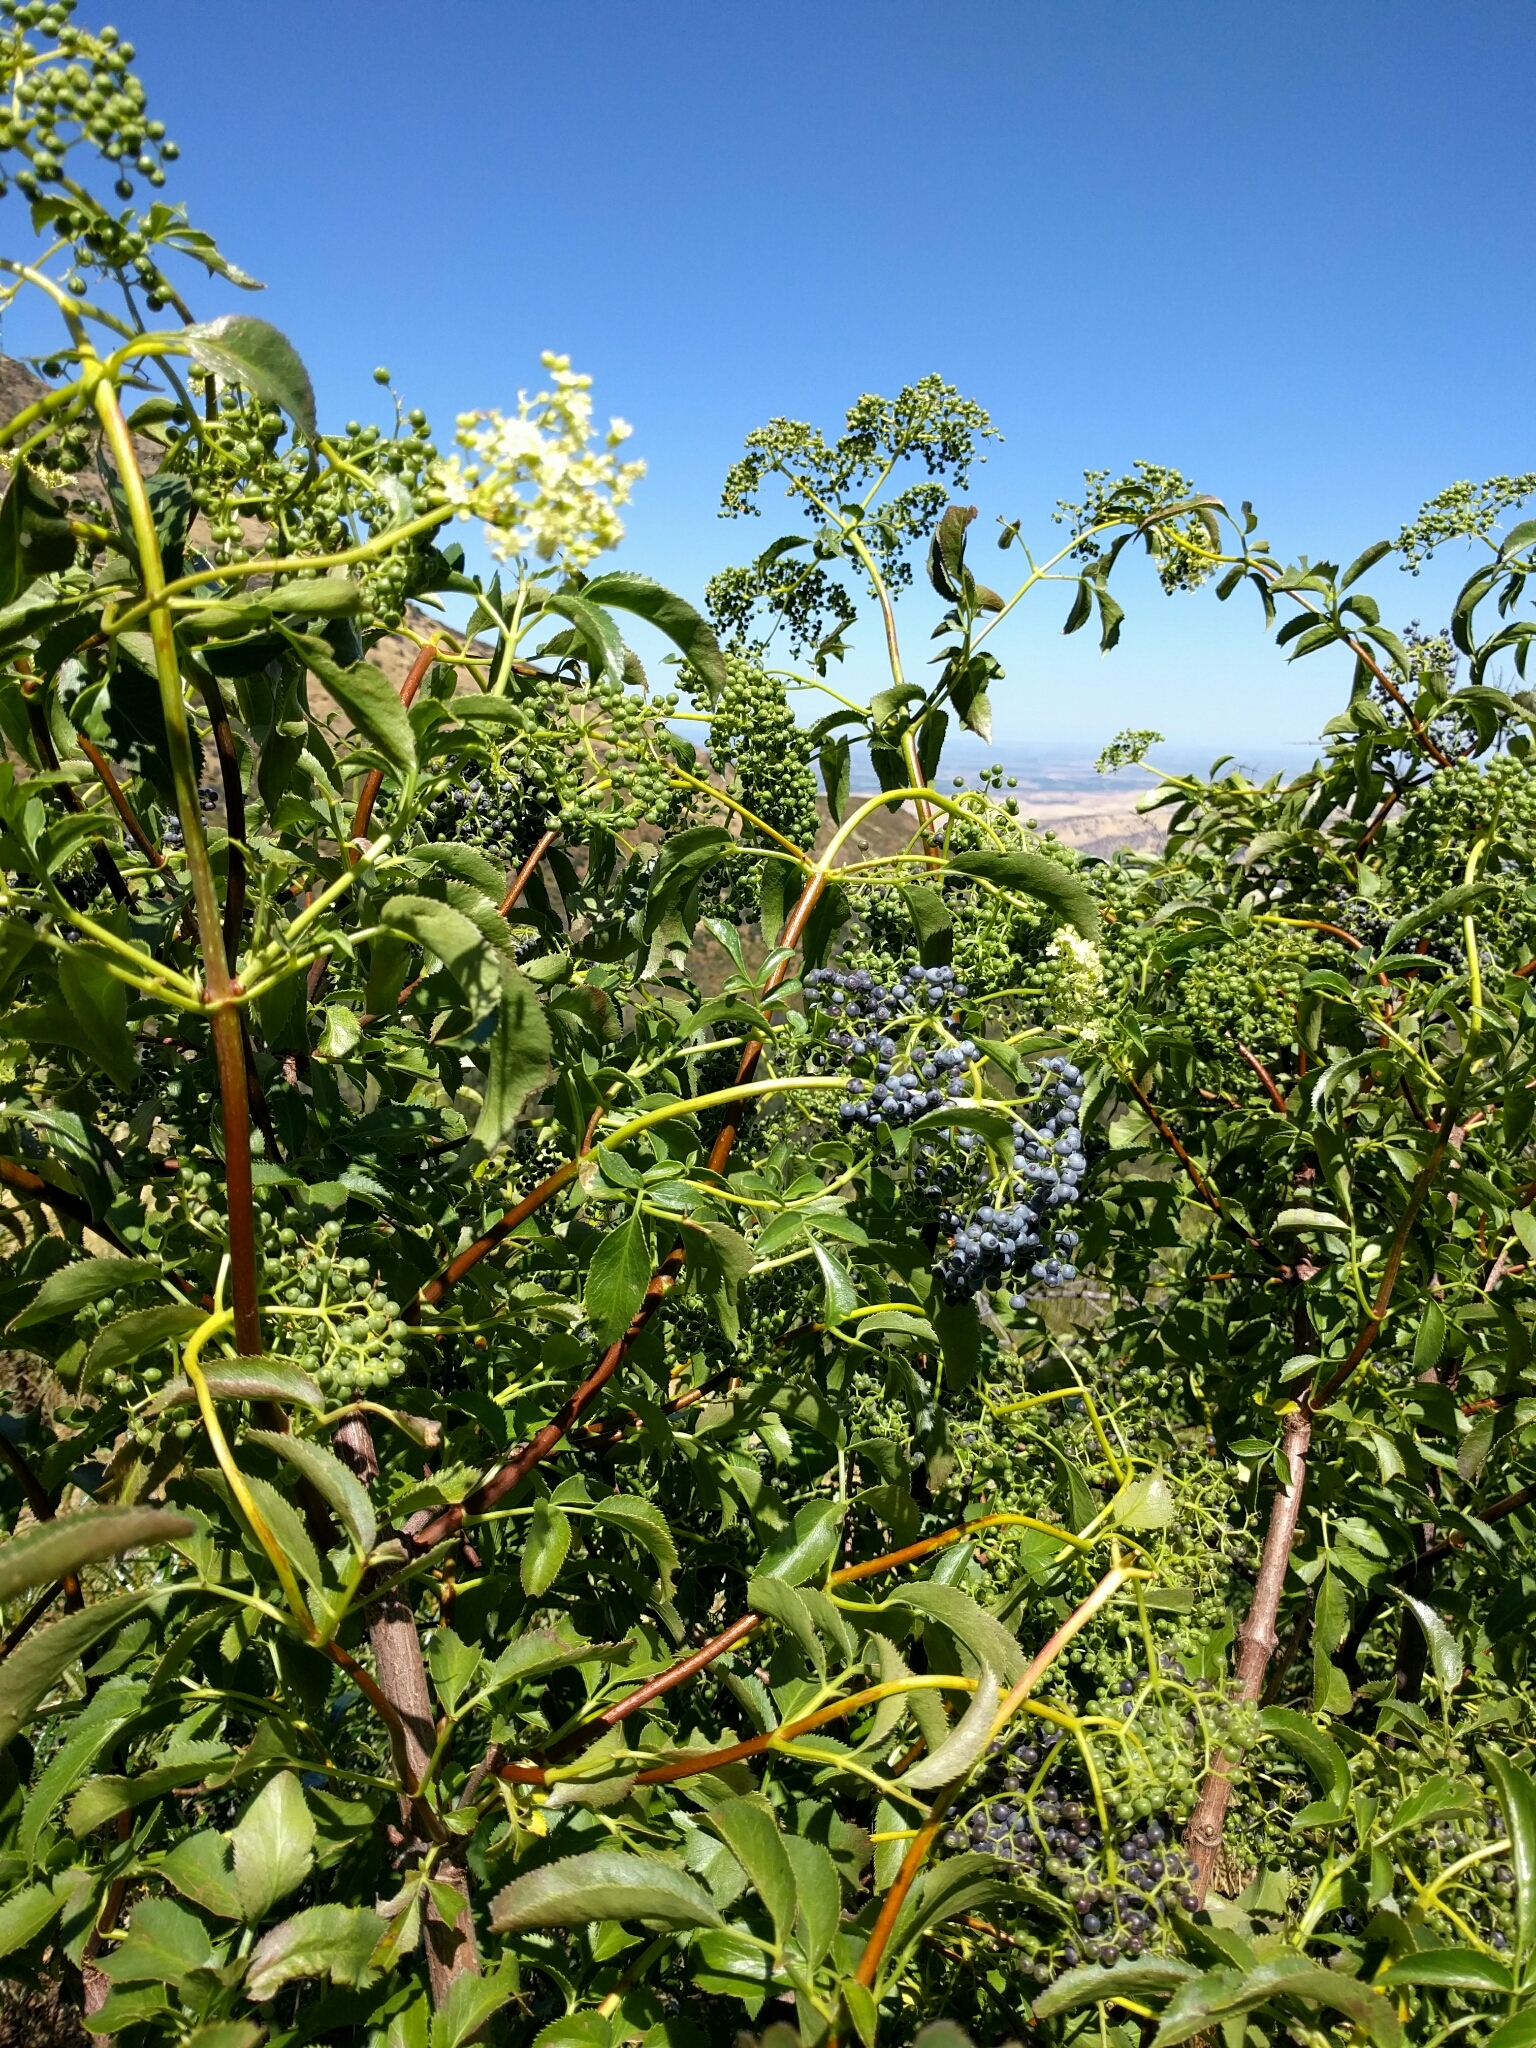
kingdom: Plantae
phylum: Tracheophyta
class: Magnoliopsida
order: Dipsacales
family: Viburnaceae
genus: Sambucus
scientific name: Sambucus cerulea
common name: Blue elder
